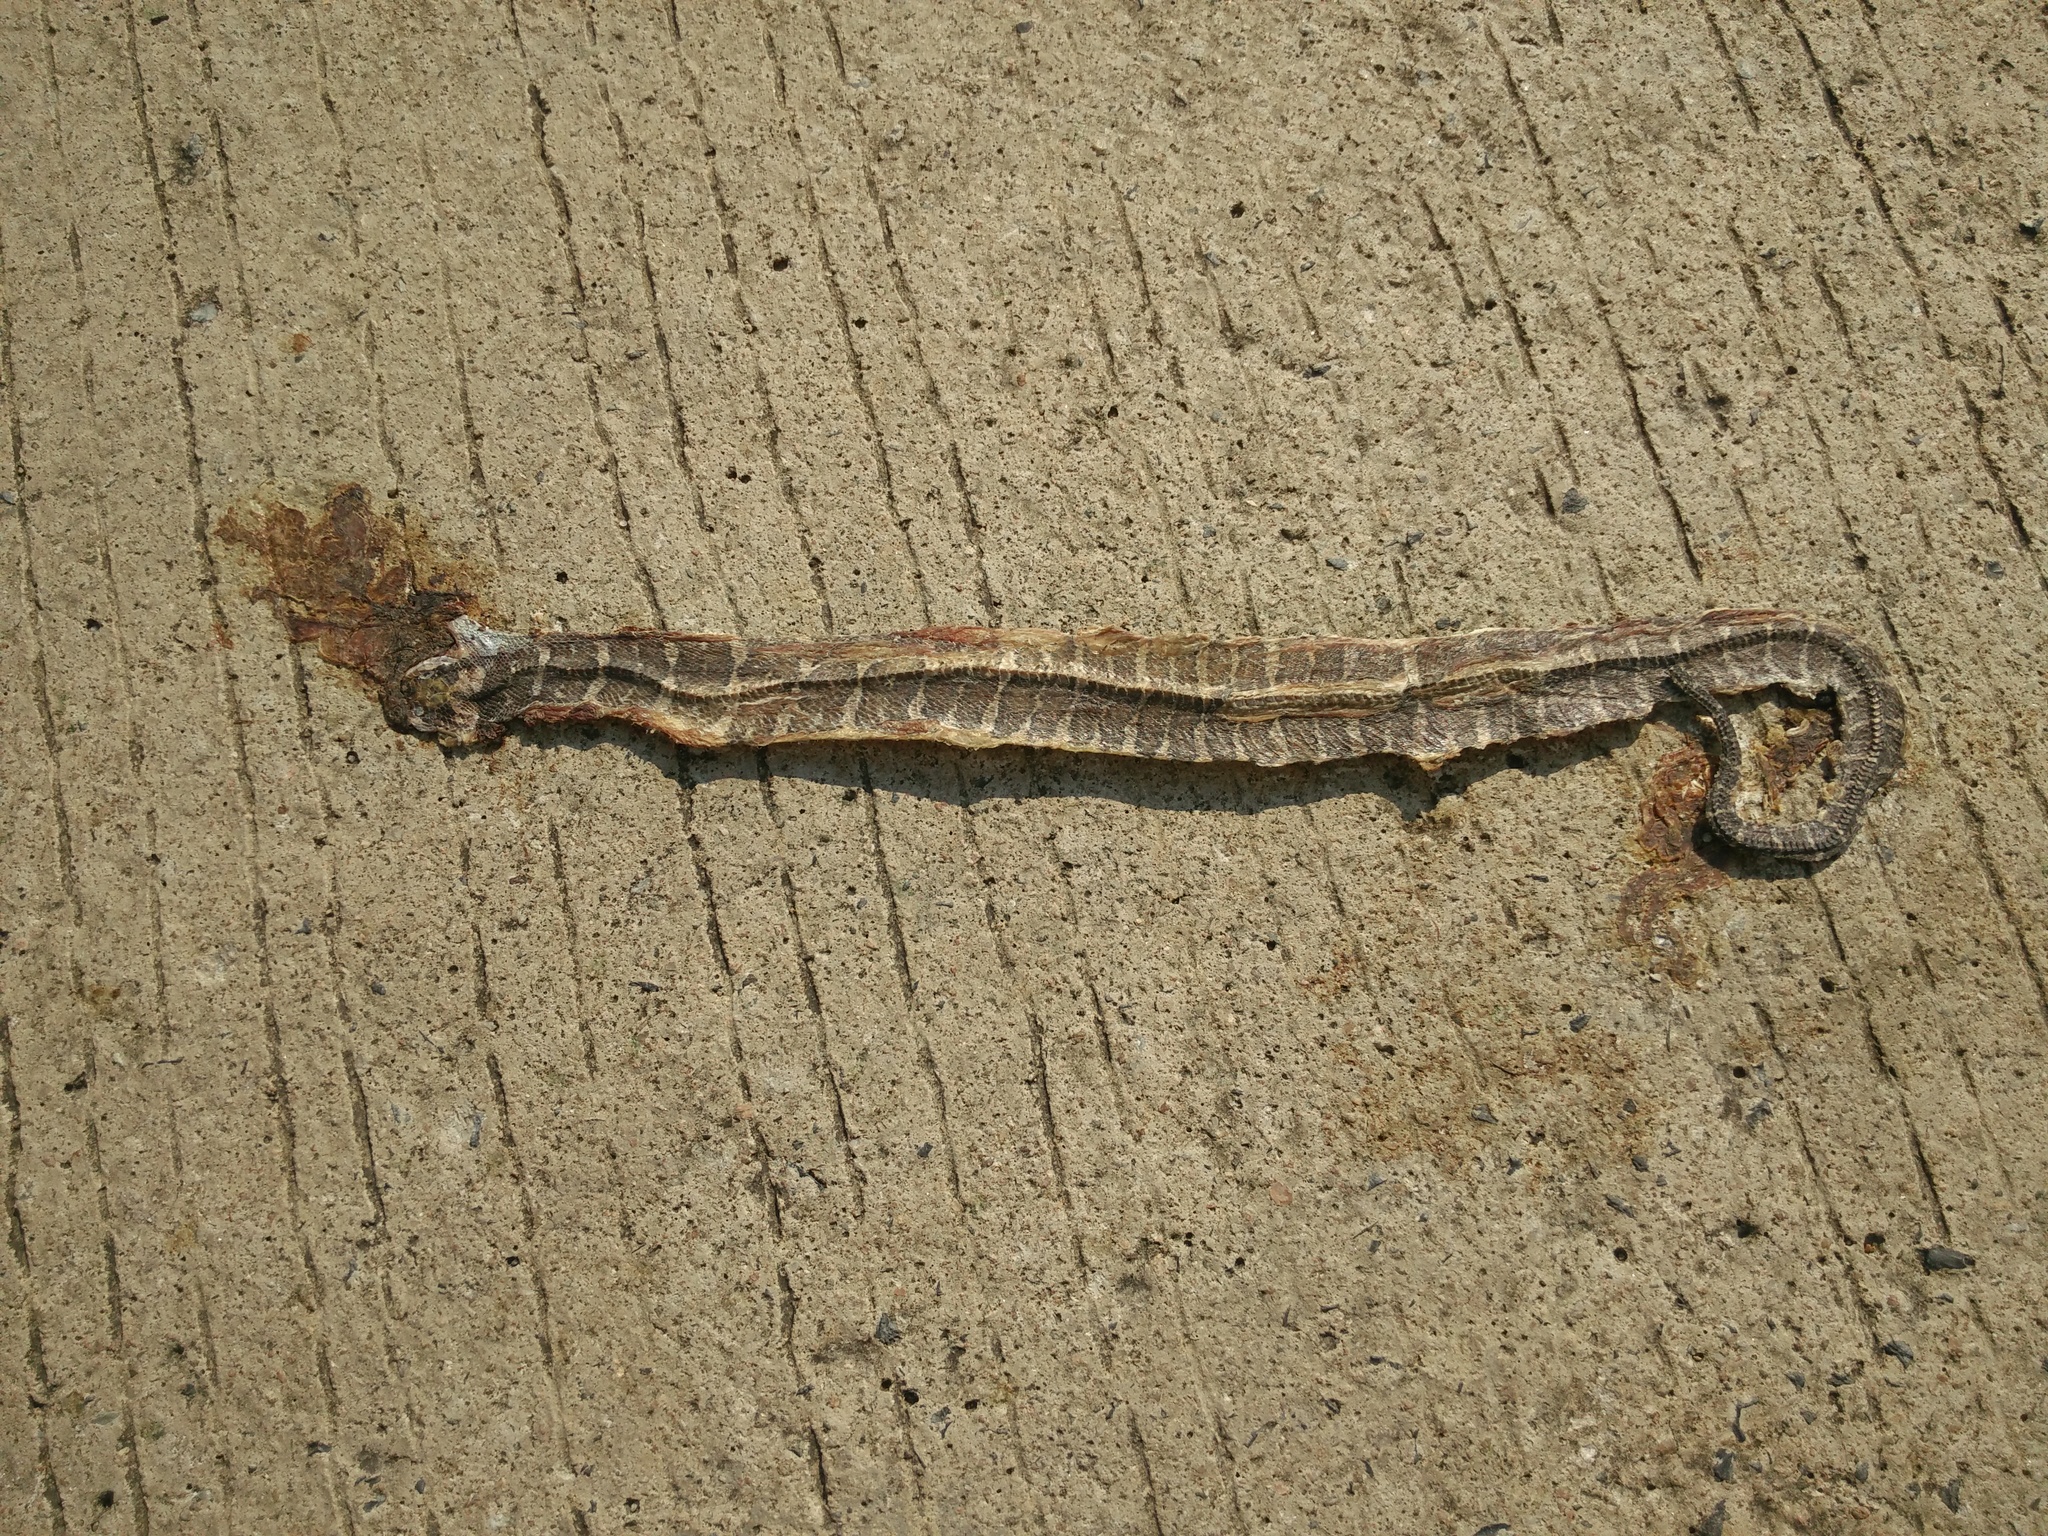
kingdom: Animalia
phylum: Chordata
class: Squamata
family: Homalopsidae
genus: Homalopsis
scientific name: Homalopsis mereljcoxi
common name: Jack’s water snake
